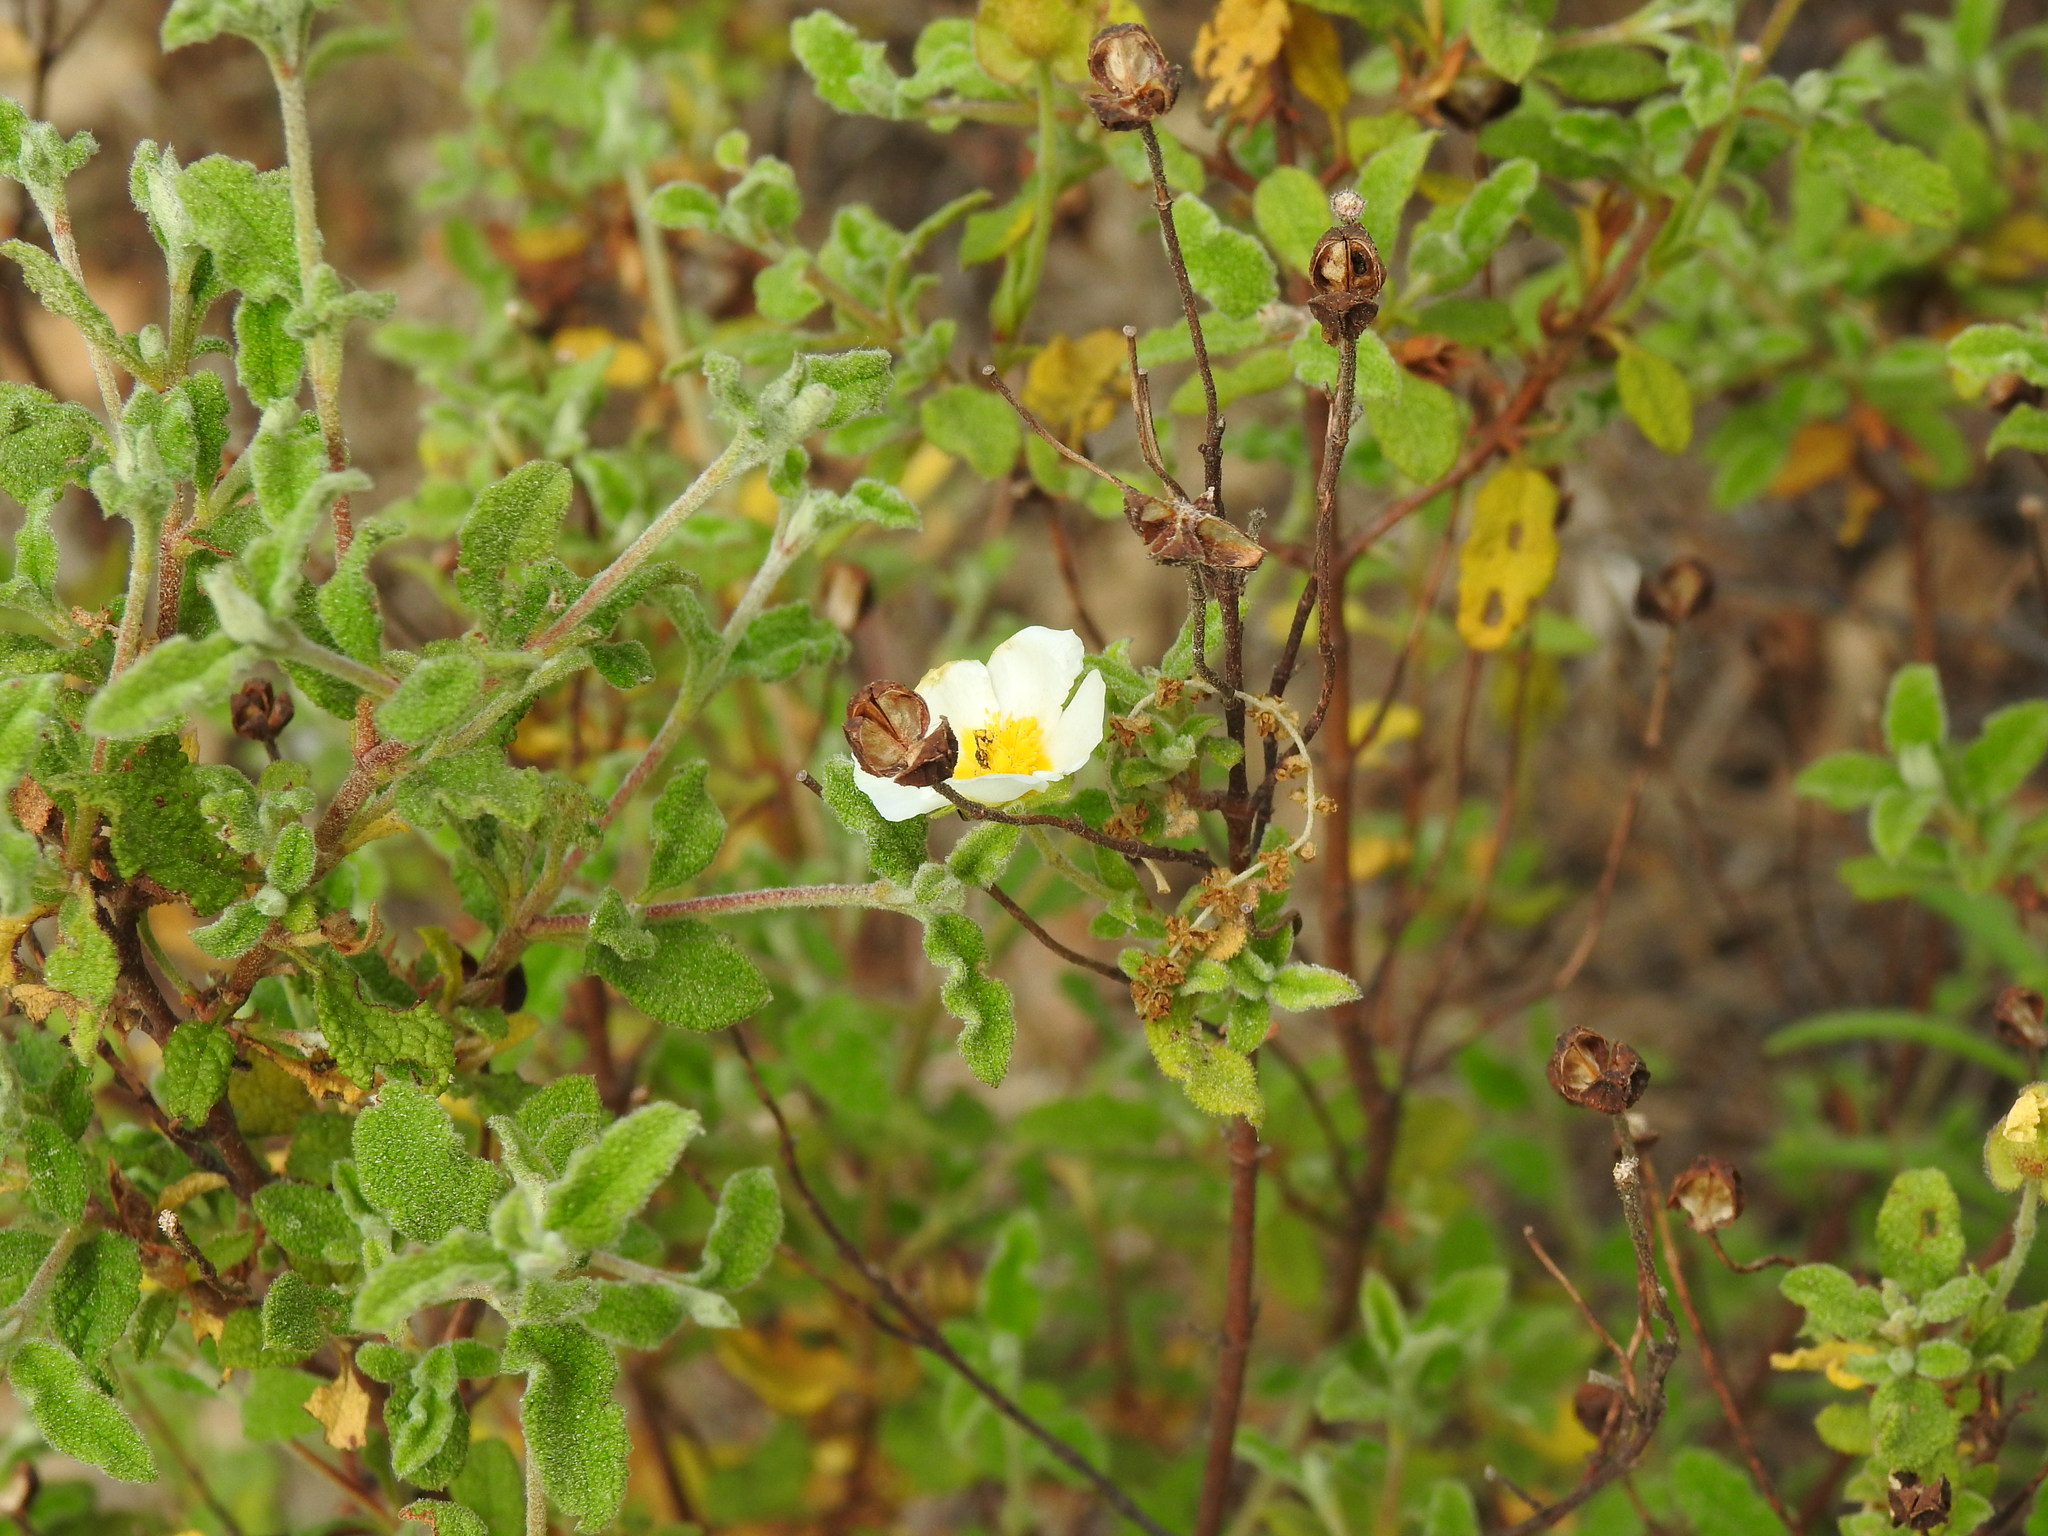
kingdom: Plantae
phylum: Tracheophyta
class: Magnoliopsida
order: Malvales
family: Cistaceae
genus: Cistus
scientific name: Cistus salviifolius
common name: Salvia cistus
